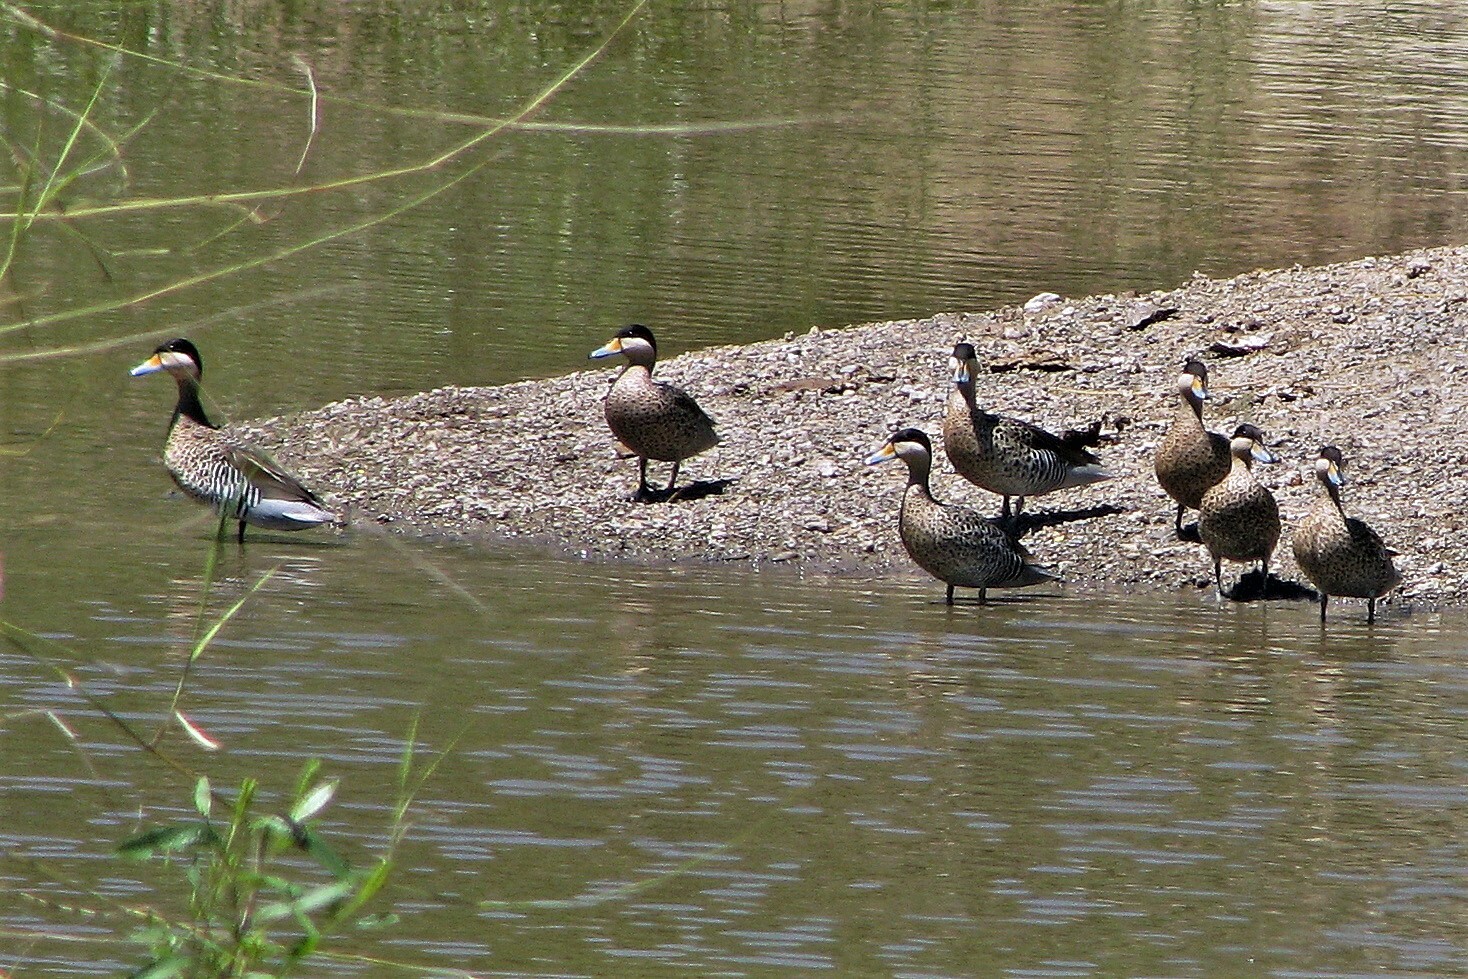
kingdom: Animalia
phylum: Chordata
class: Aves
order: Anseriformes
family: Anatidae
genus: Spatula
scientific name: Spatula versicolor
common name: Silver teal
